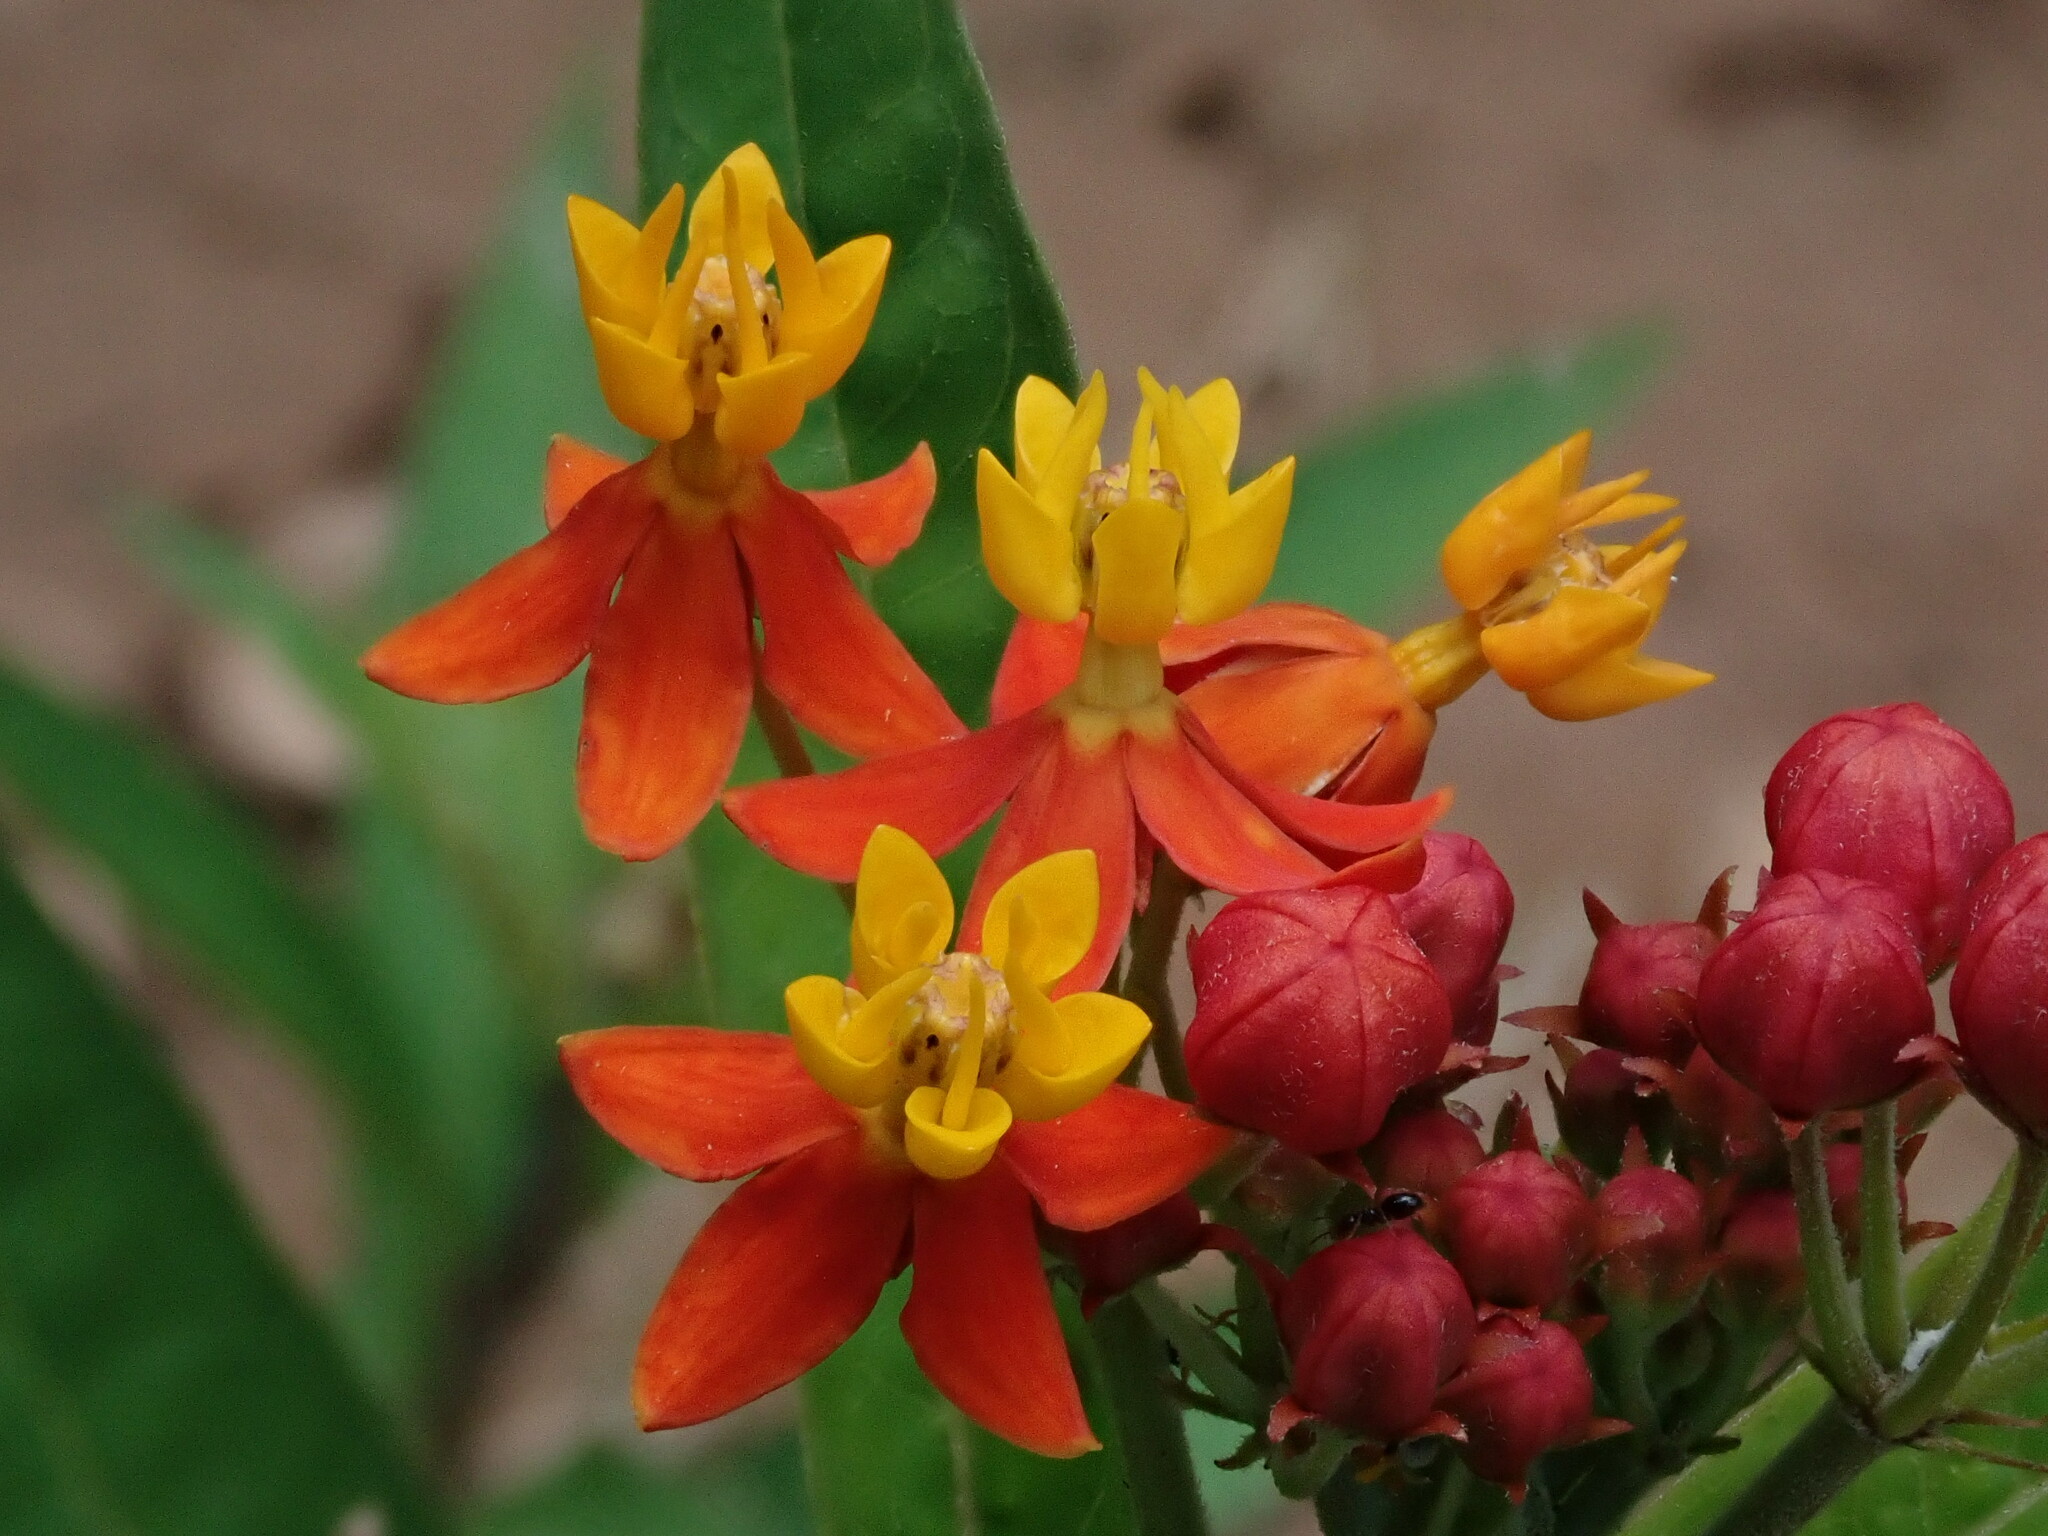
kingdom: Plantae
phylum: Tracheophyta
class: Magnoliopsida
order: Gentianales
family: Apocynaceae
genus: Asclepias
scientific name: Asclepias curassavica
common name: Bloodflower
